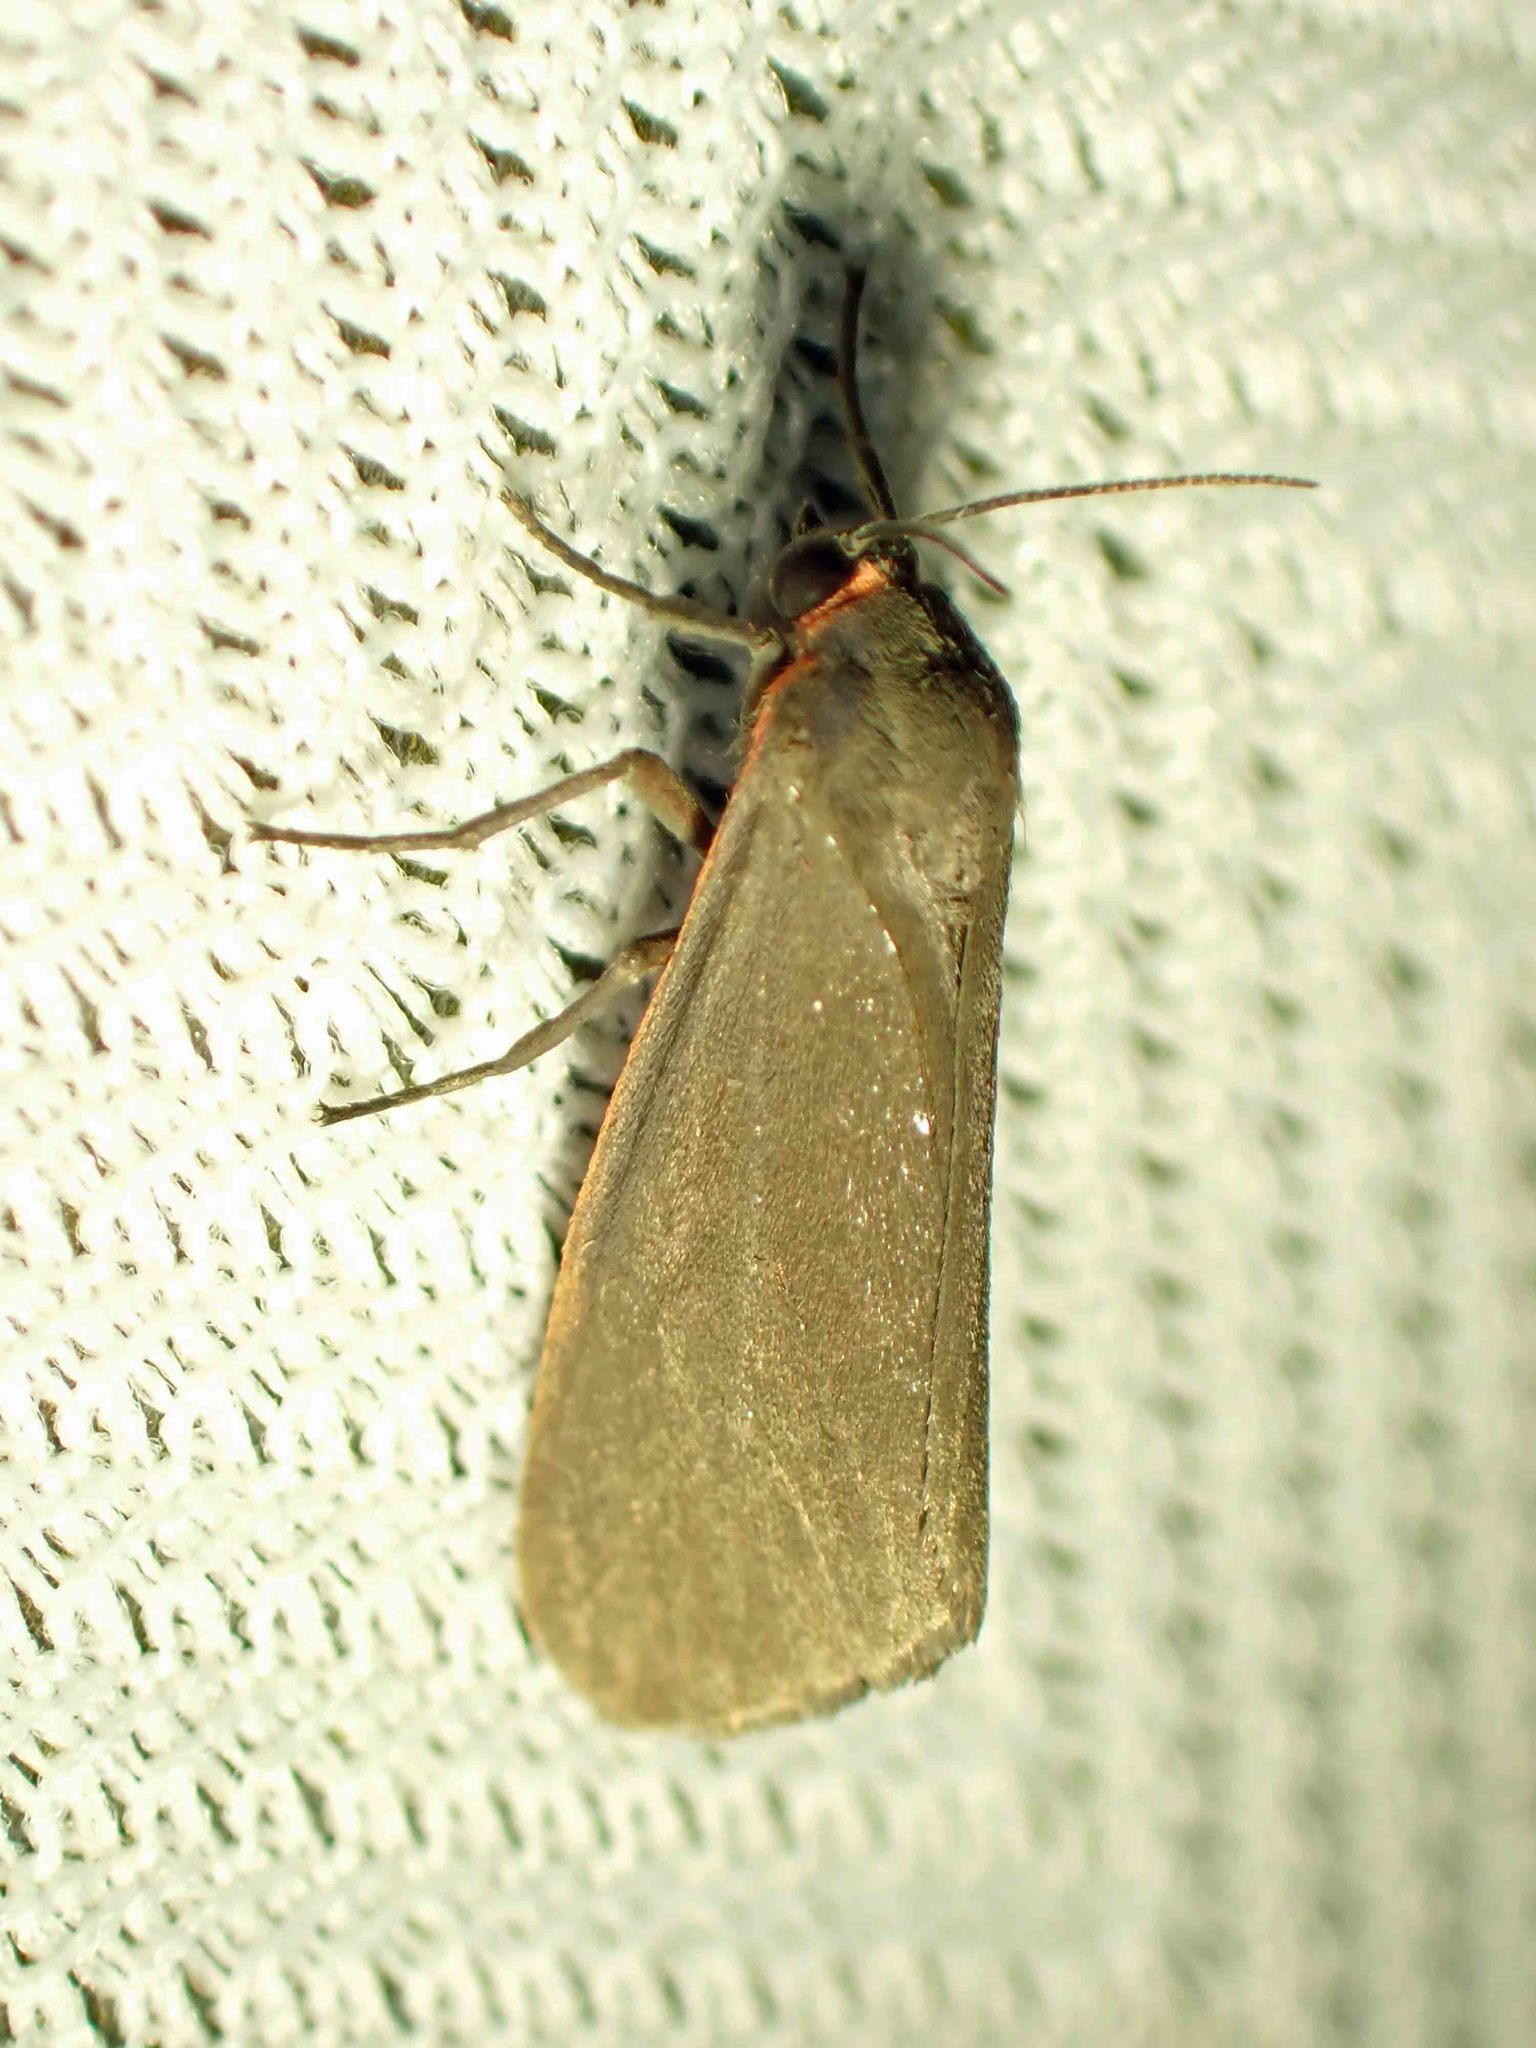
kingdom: Animalia
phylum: Arthropoda
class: Insecta
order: Lepidoptera
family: Erebidae
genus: Virbia
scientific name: Virbia laeta
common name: Joyful holomelina moth
